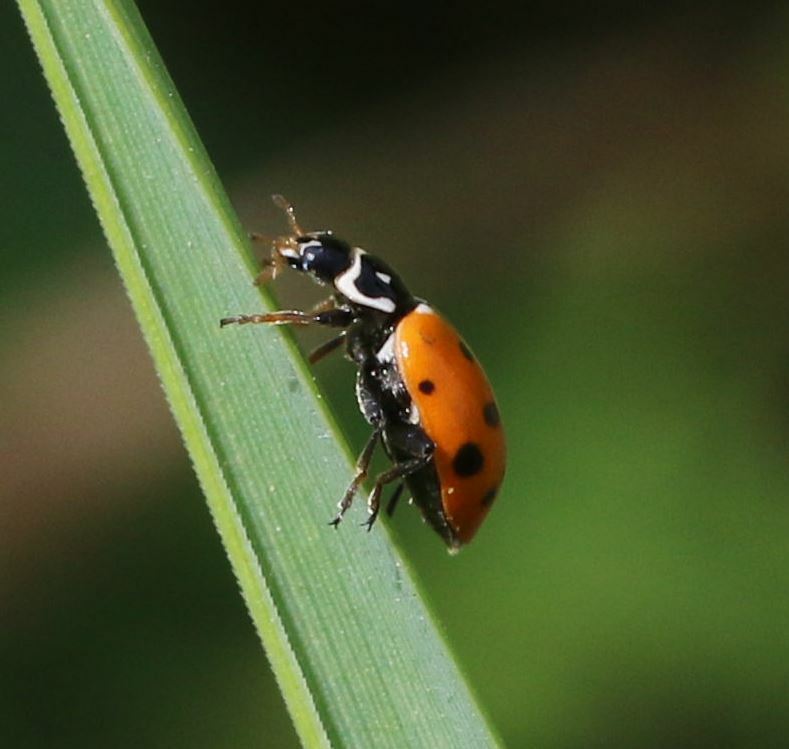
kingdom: Animalia
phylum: Arthropoda
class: Insecta
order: Coleoptera
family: Coccinellidae
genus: Hippodamia
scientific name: Hippodamia variegata
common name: Ladybird beetle
